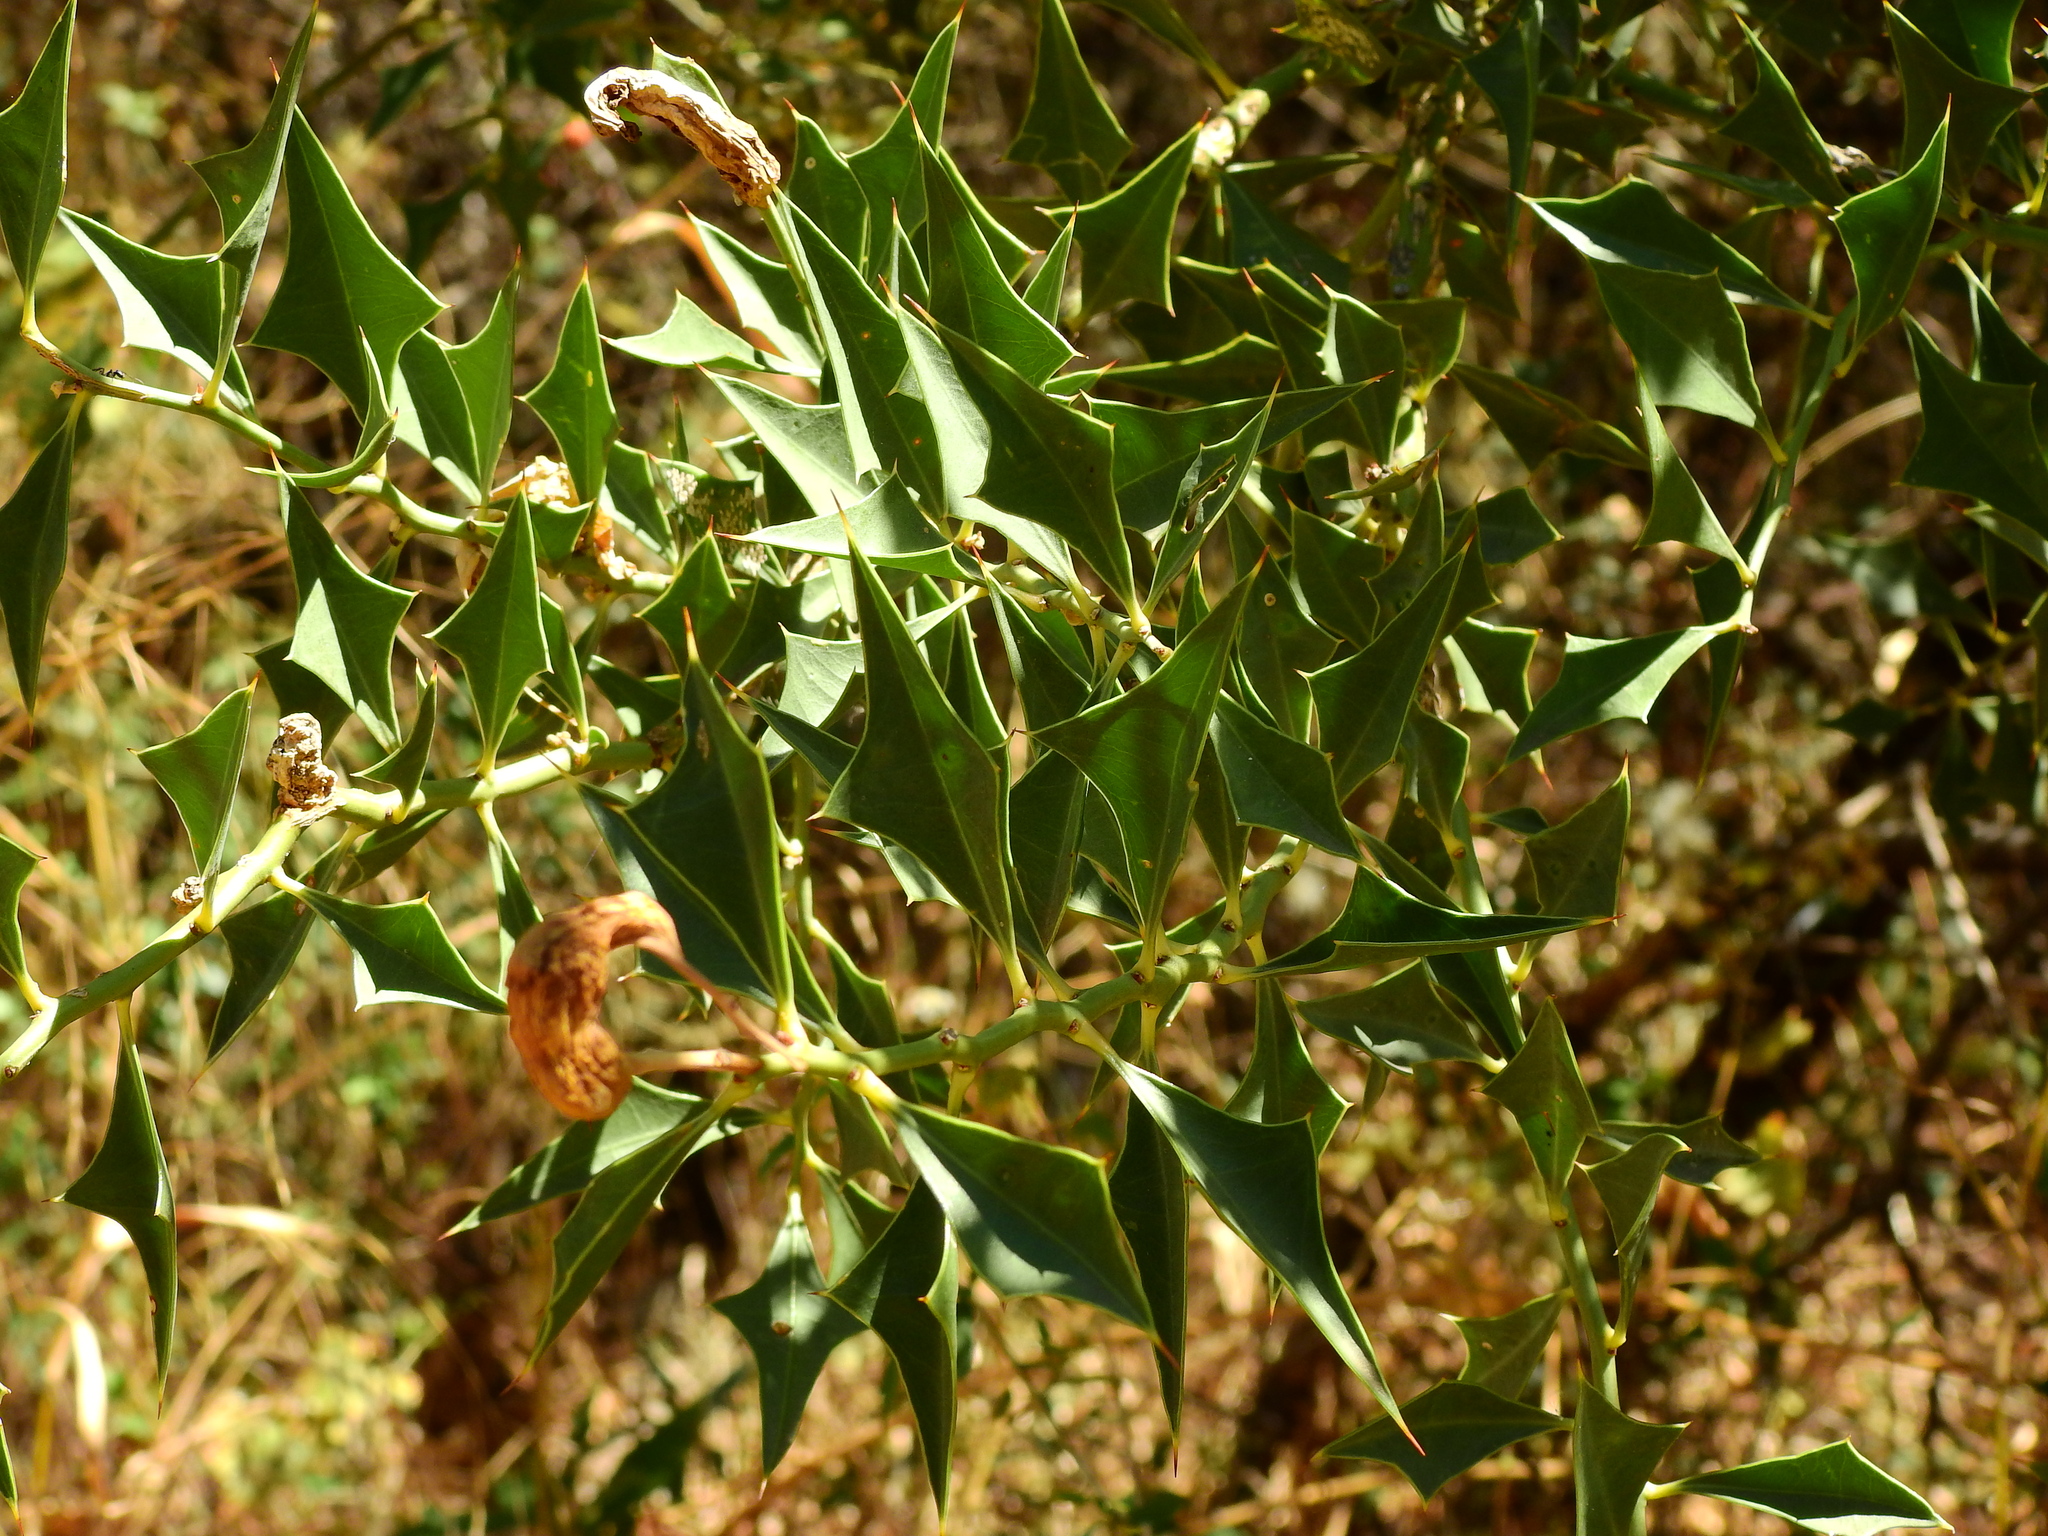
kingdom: Plantae
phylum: Tracheophyta
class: Magnoliopsida
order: Santalales
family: Cervantesiaceae
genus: Jodina
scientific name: Jodina rhombifolia
